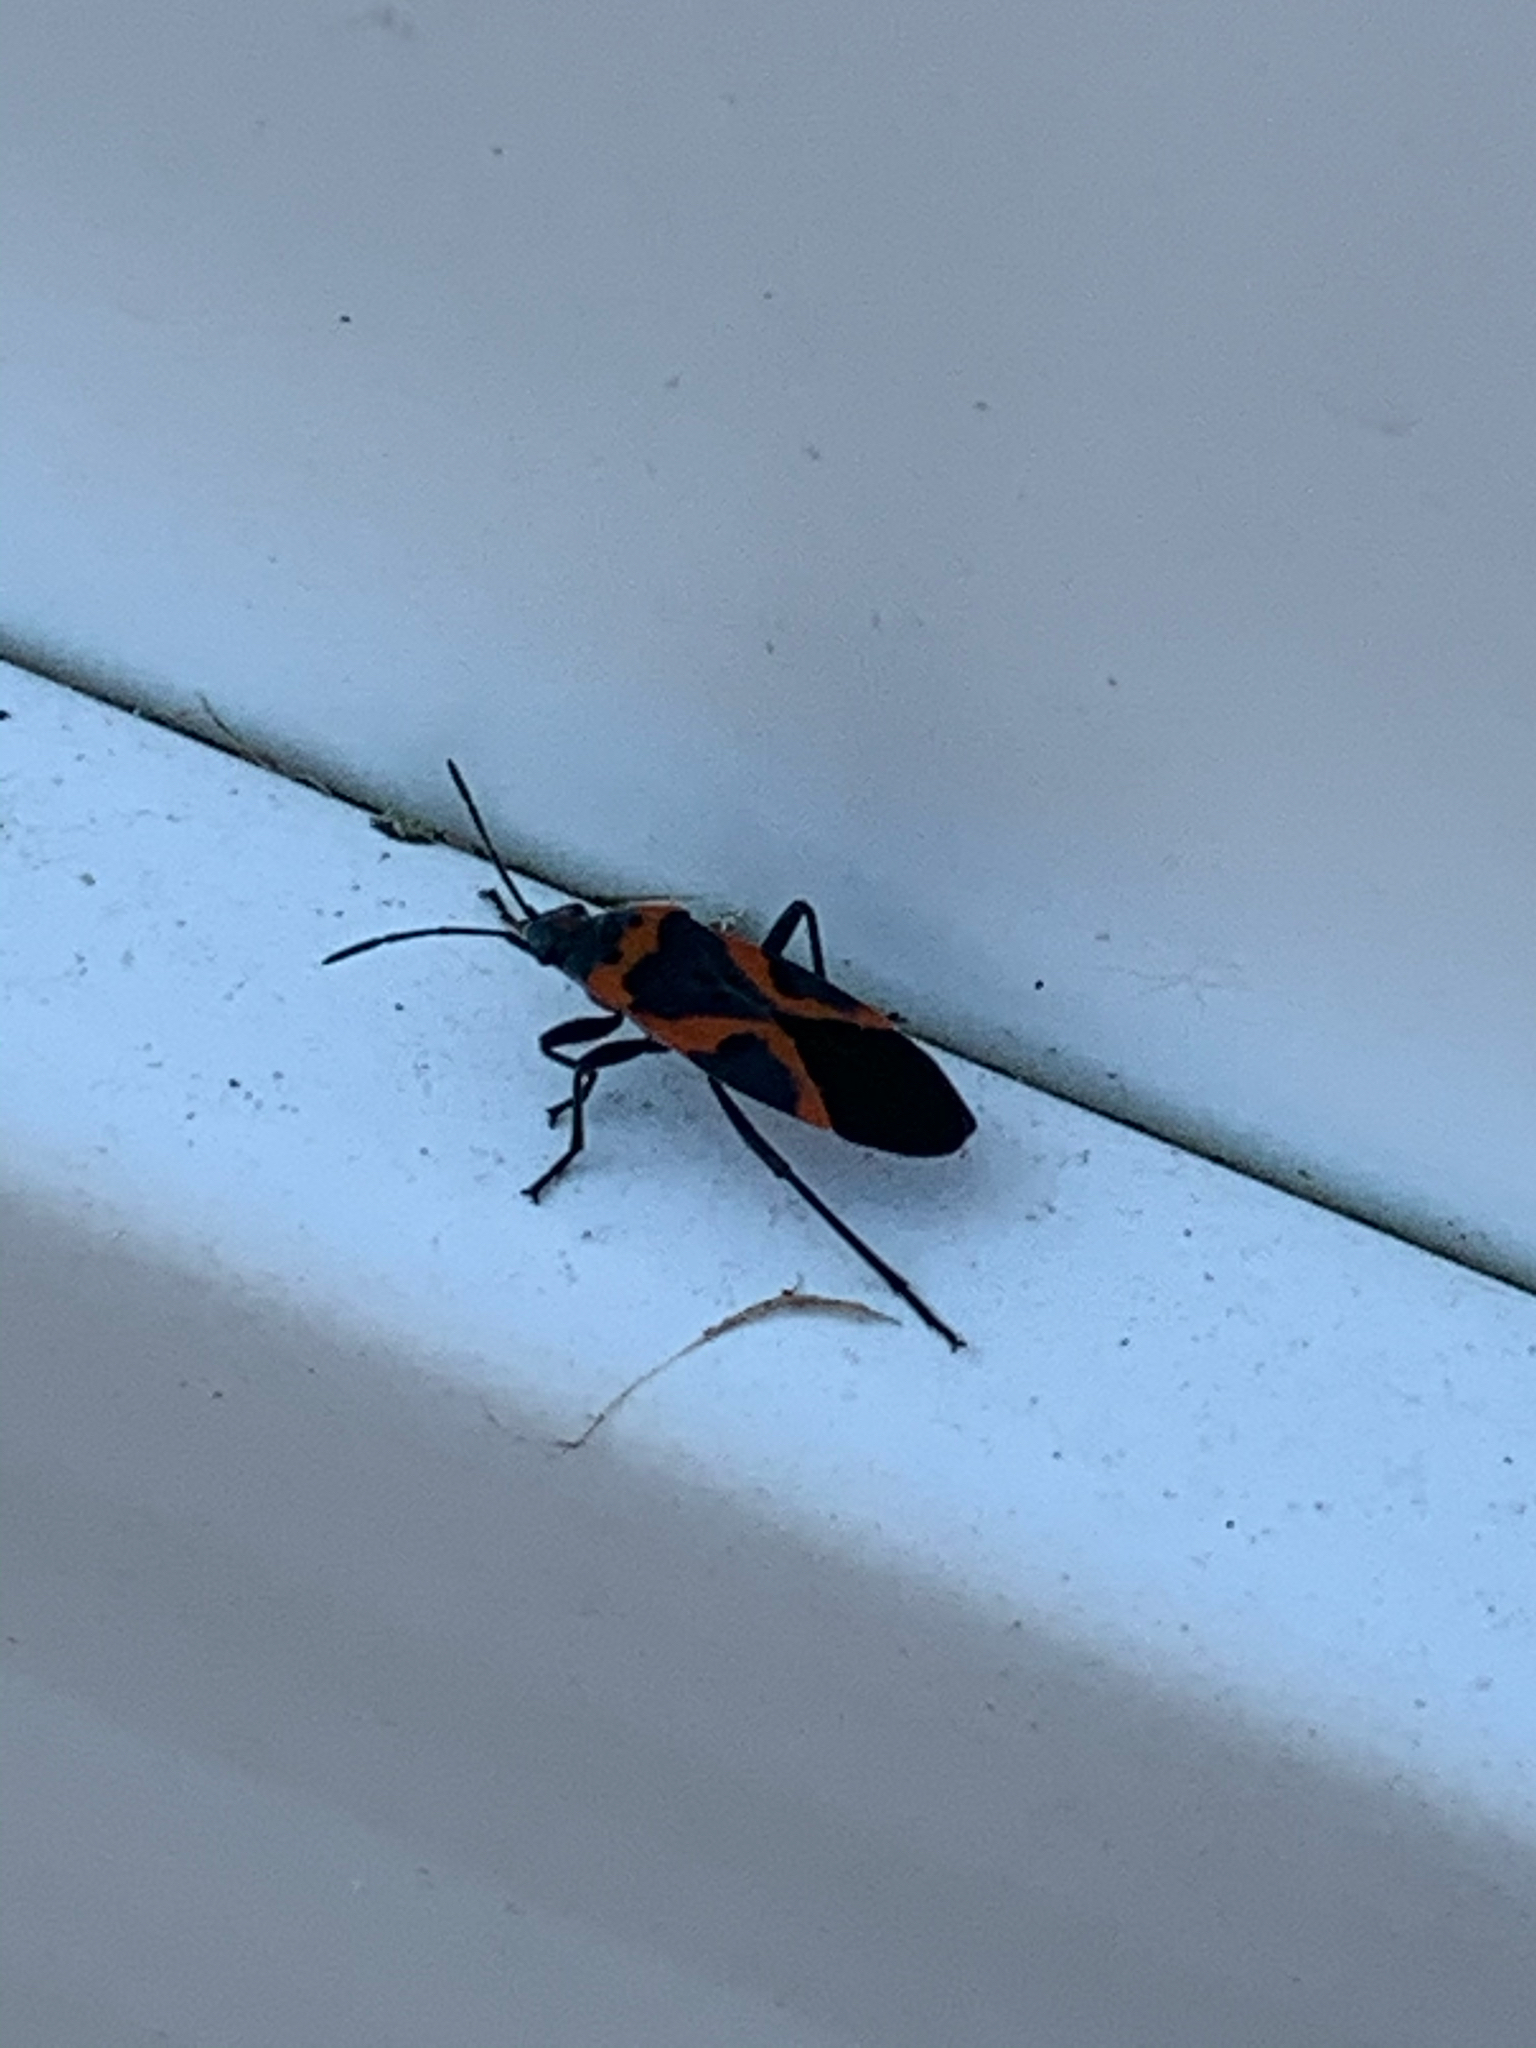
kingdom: Animalia
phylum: Arthropoda
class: Insecta
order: Hemiptera
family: Lygaeidae
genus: Lygaeus
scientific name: Lygaeus kalmii
